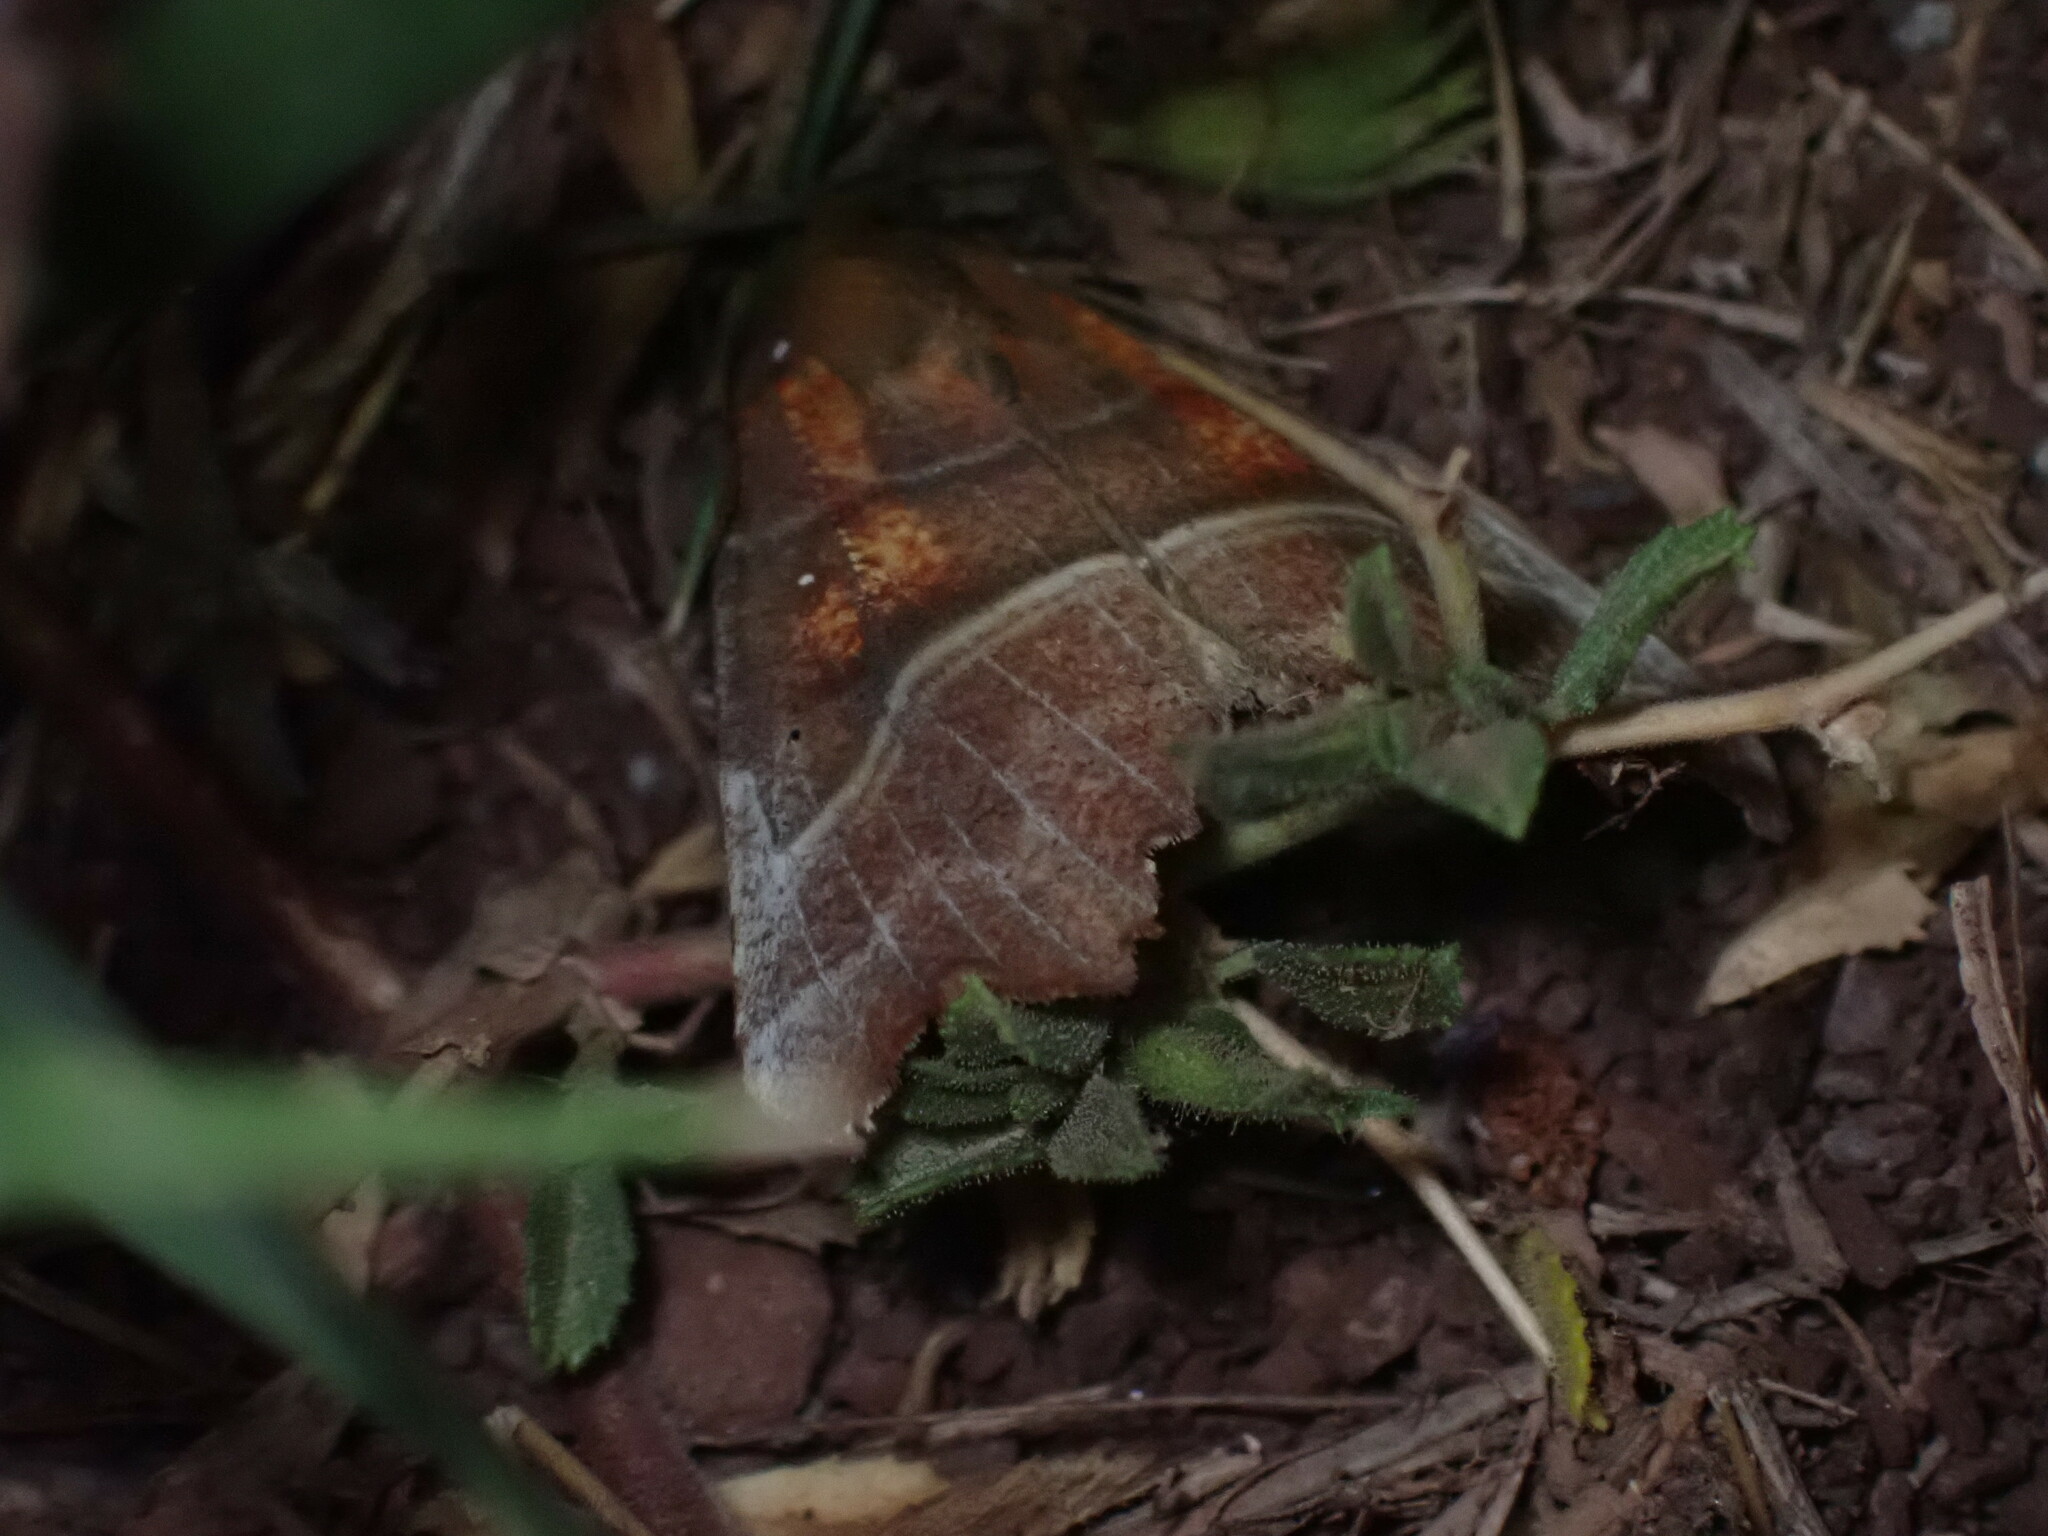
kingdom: Animalia
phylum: Arthropoda
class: Insecta
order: Lepidoptera
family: Erebidae
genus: Scoliopteryx
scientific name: Scoliopteryx libatrix
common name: Herald
